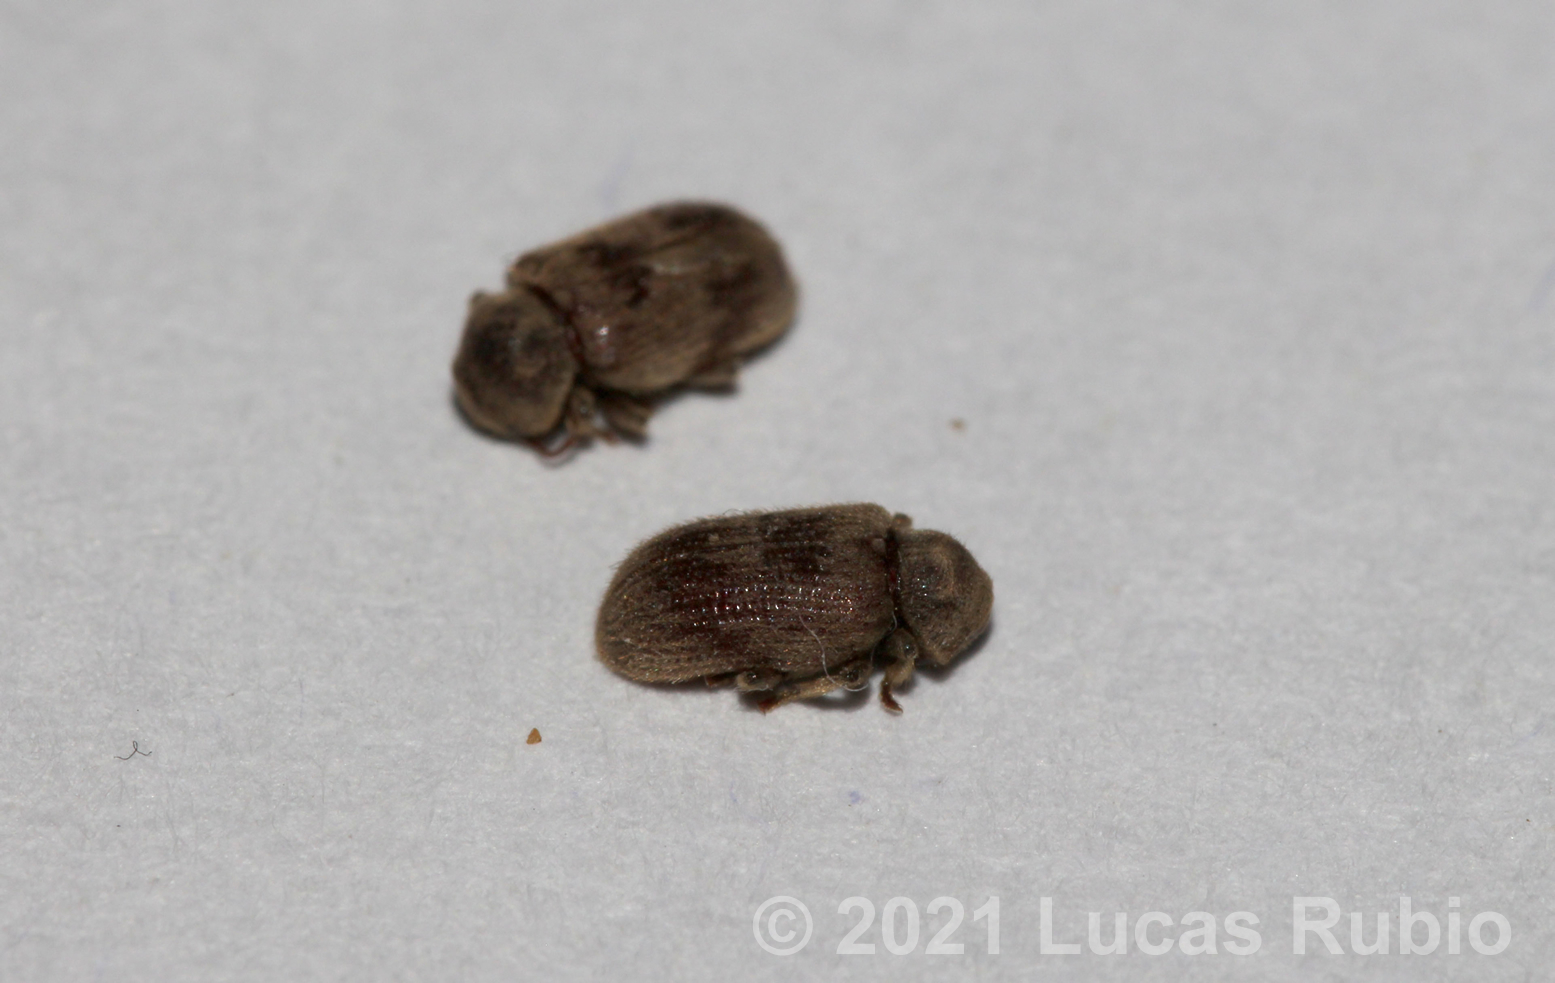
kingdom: Animalia
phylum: Arthropoda
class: Insecta
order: Coleoptera
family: Anobiidae
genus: Nicobium
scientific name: Nicobium castaneum
